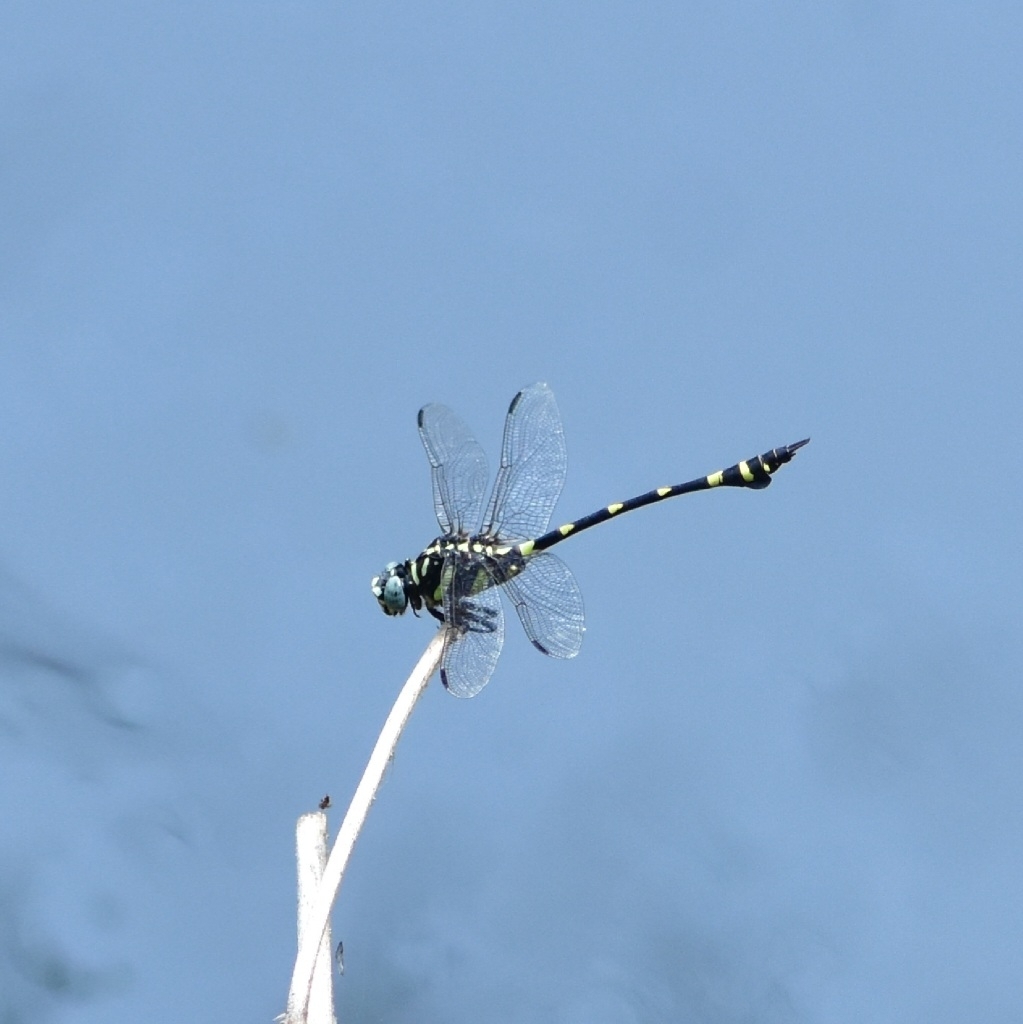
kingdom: Animalia
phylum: Arthropoda
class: Insecta
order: Odonata
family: Gomphidae
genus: Ictinogomphus
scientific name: Ictinogomphus rapax
